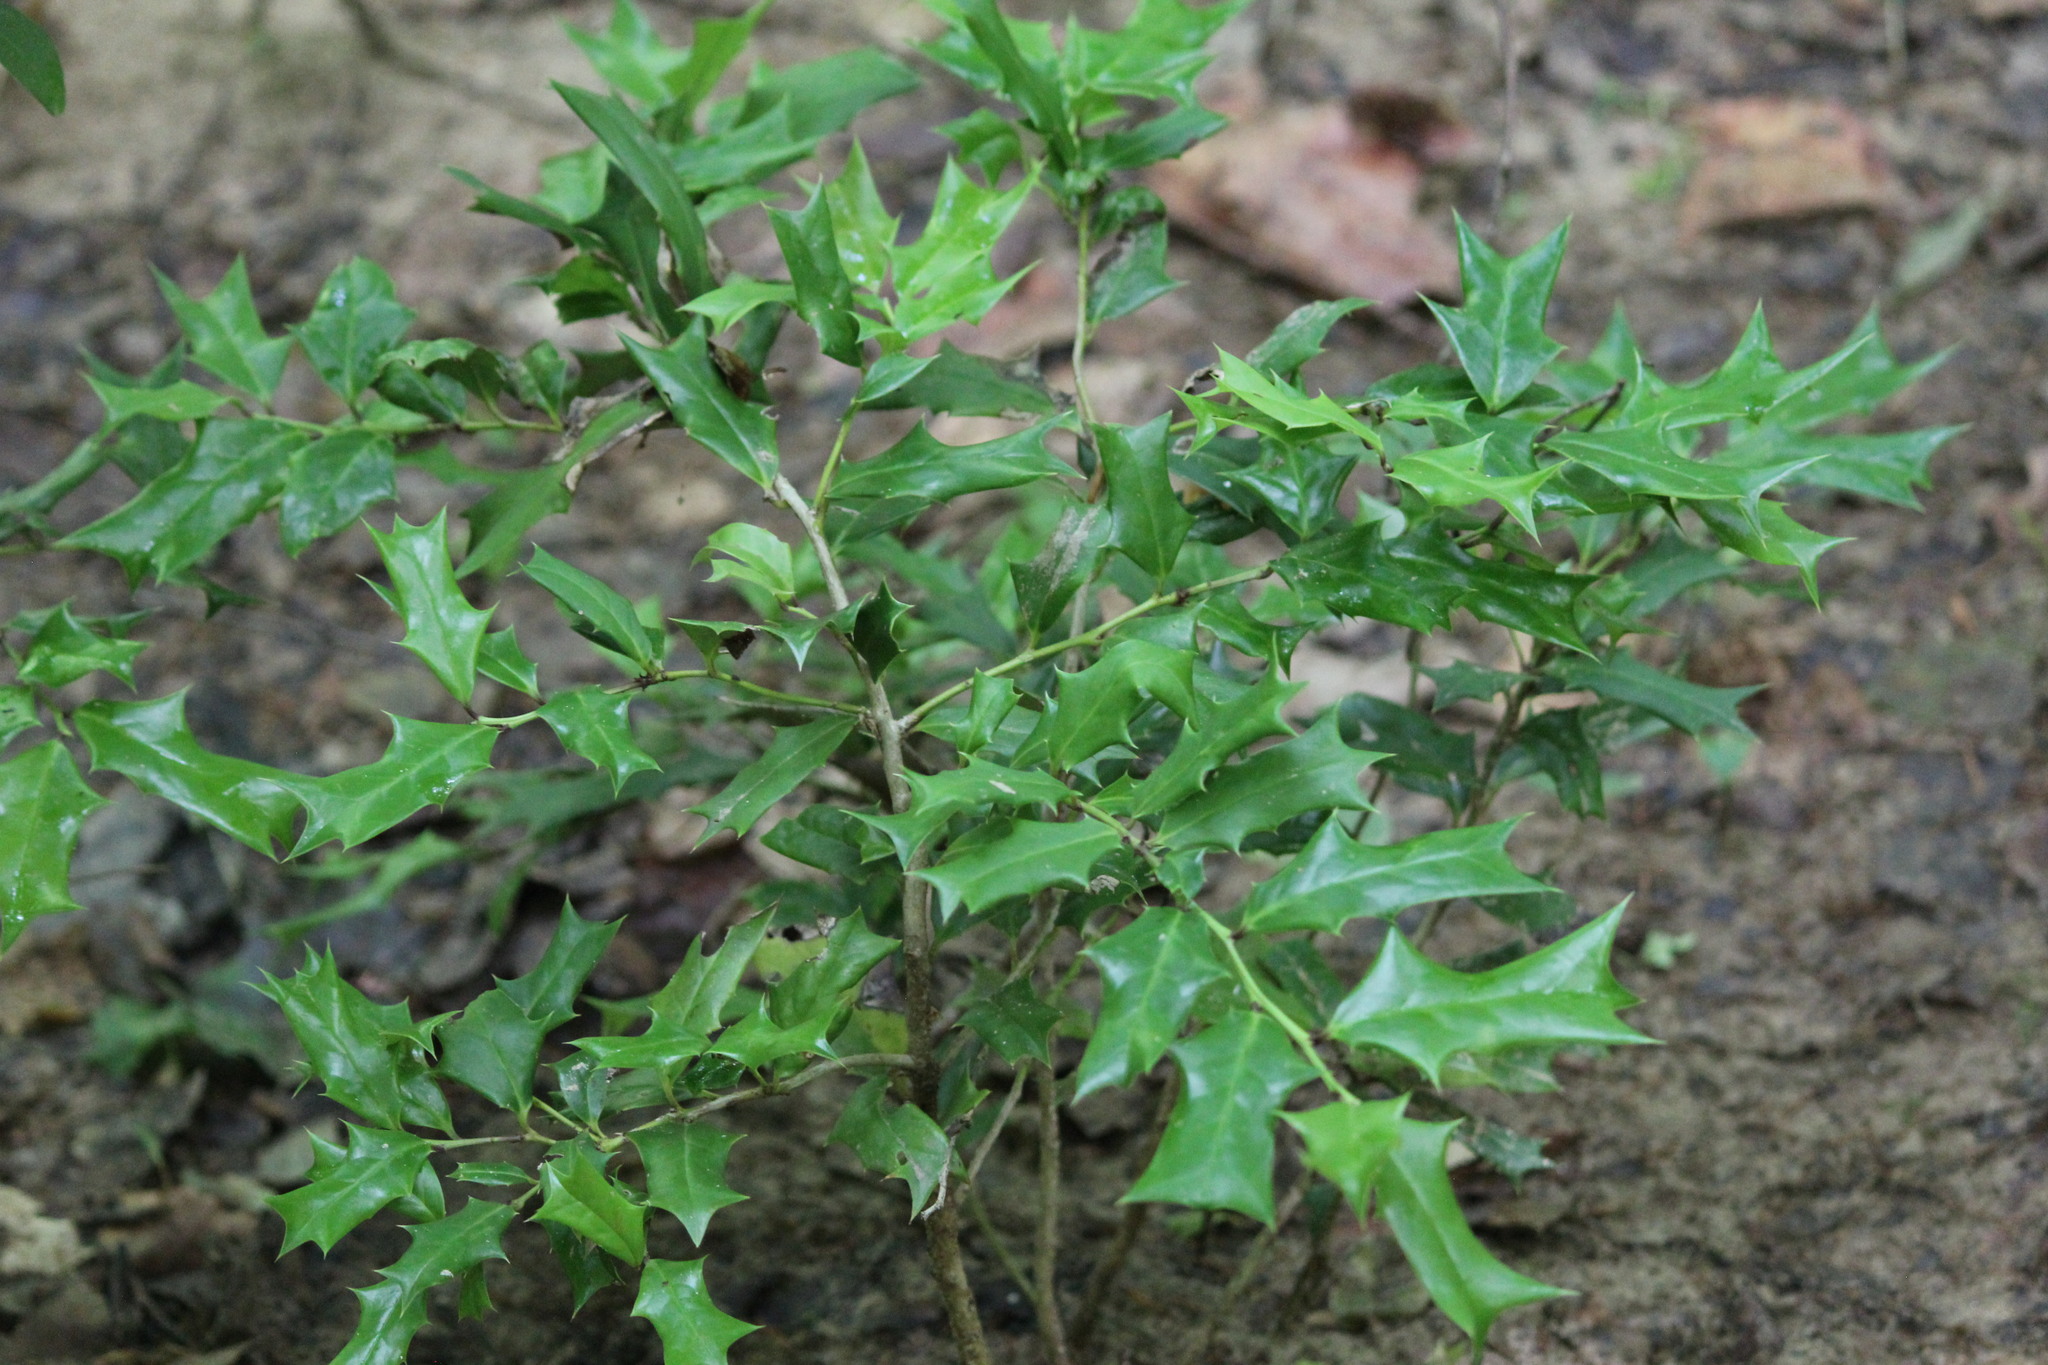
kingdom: Plantae
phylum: Tracheophyta
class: Magnoliopsida
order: Aquifoliales
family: Aquifoliaceae
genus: Ilex
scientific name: Ilex cornuta
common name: Chinese holly
